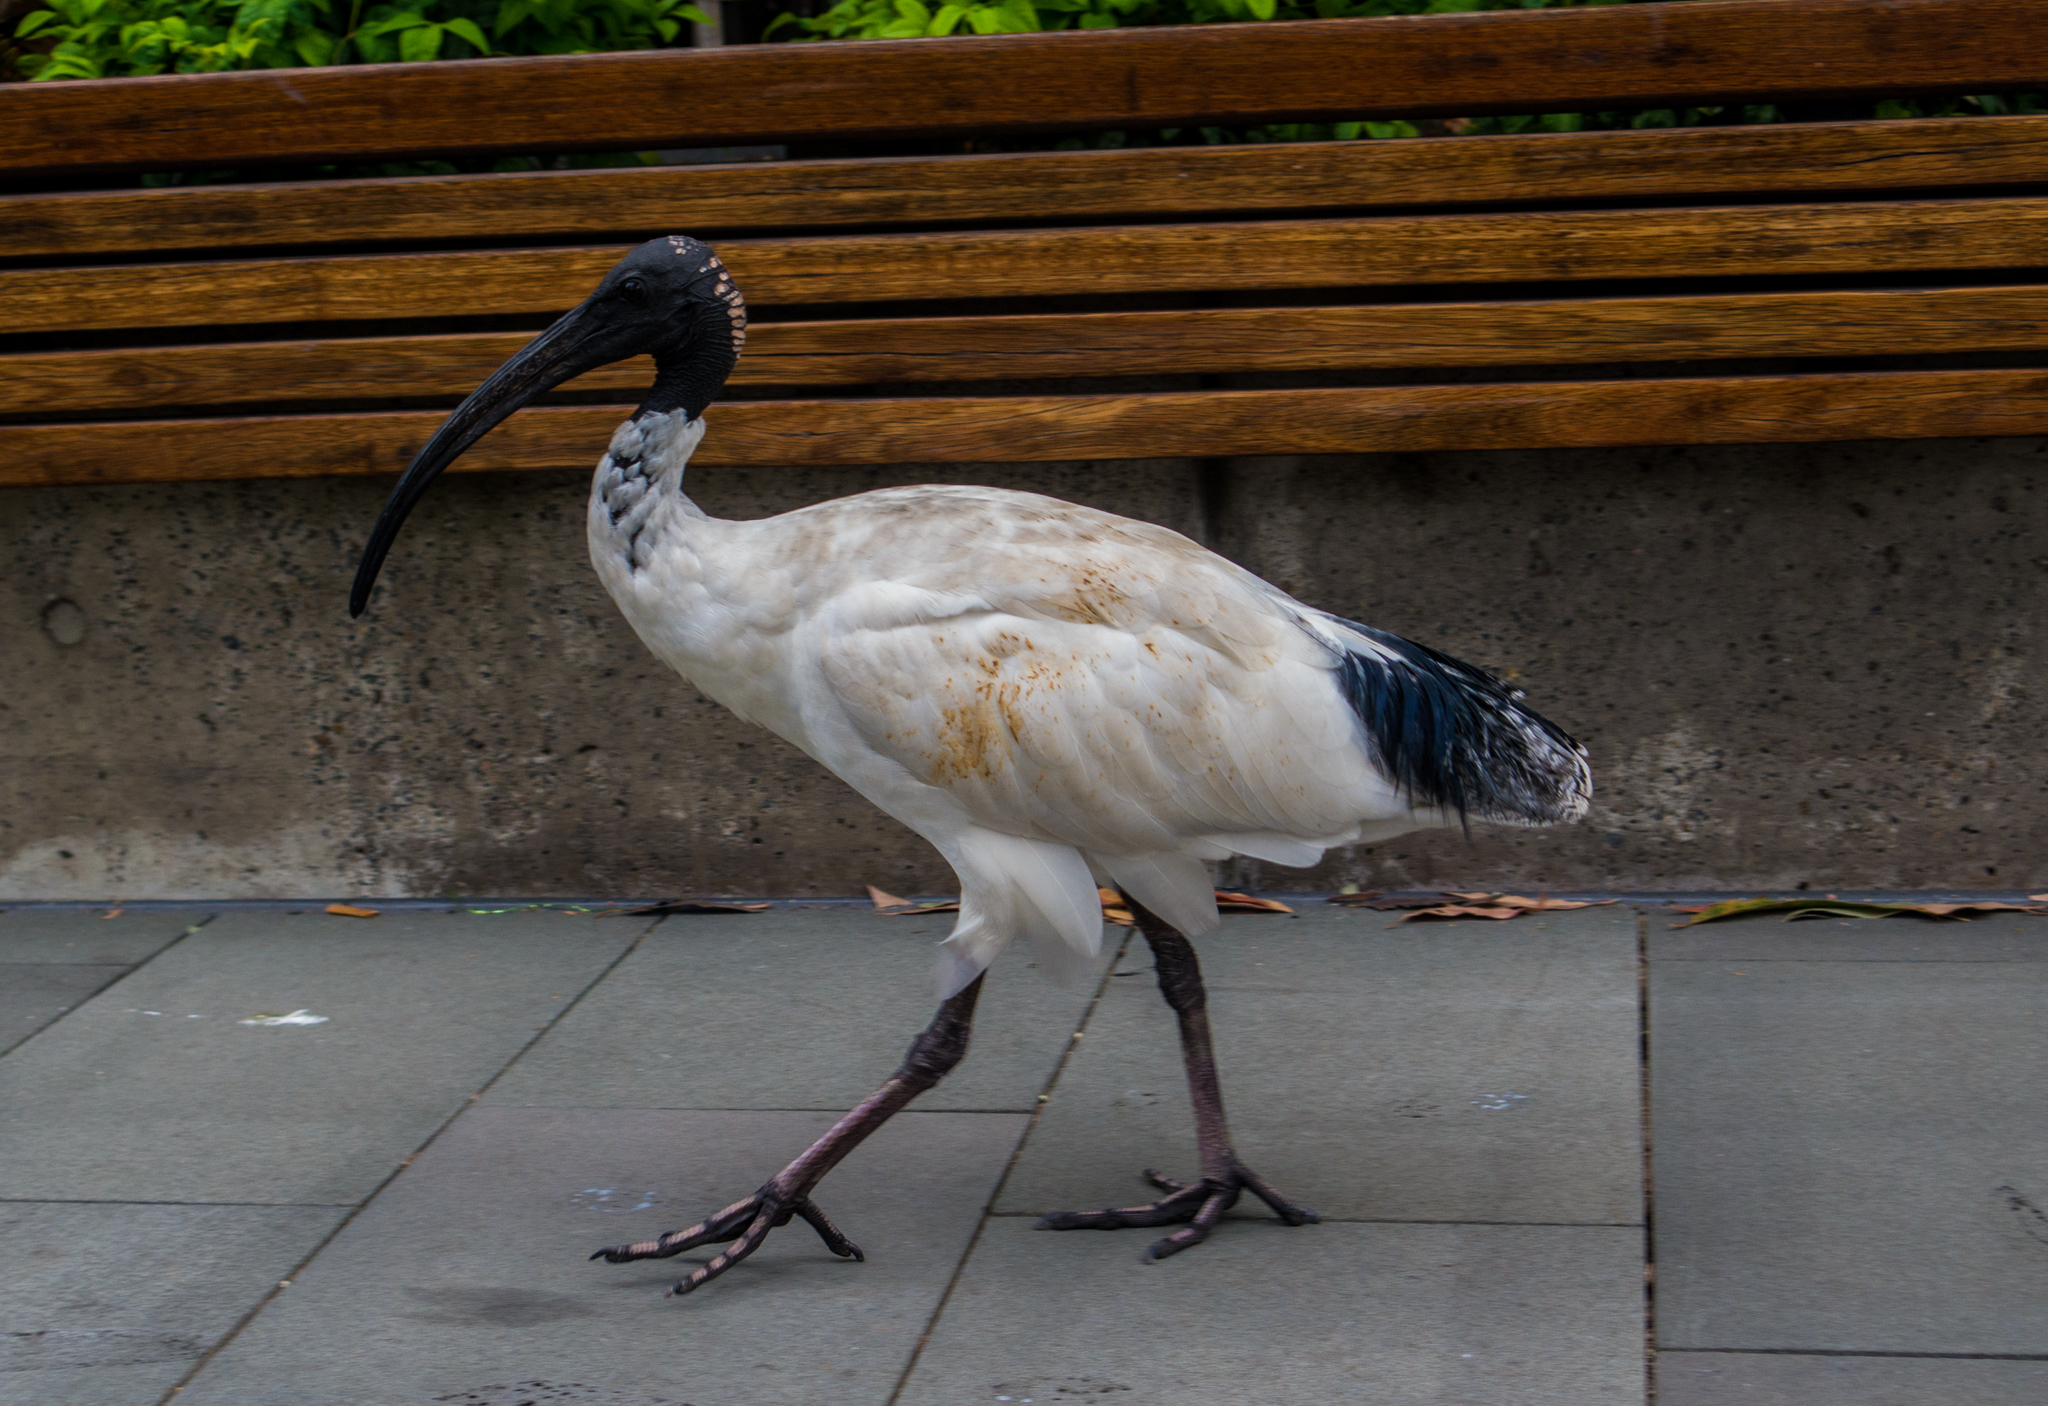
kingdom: Animalia
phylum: Chordata
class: Aves
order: Pelecaniformes
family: Threskiornithidae
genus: Threskiornis
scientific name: Threskiornis molucca
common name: Australian white ibis
